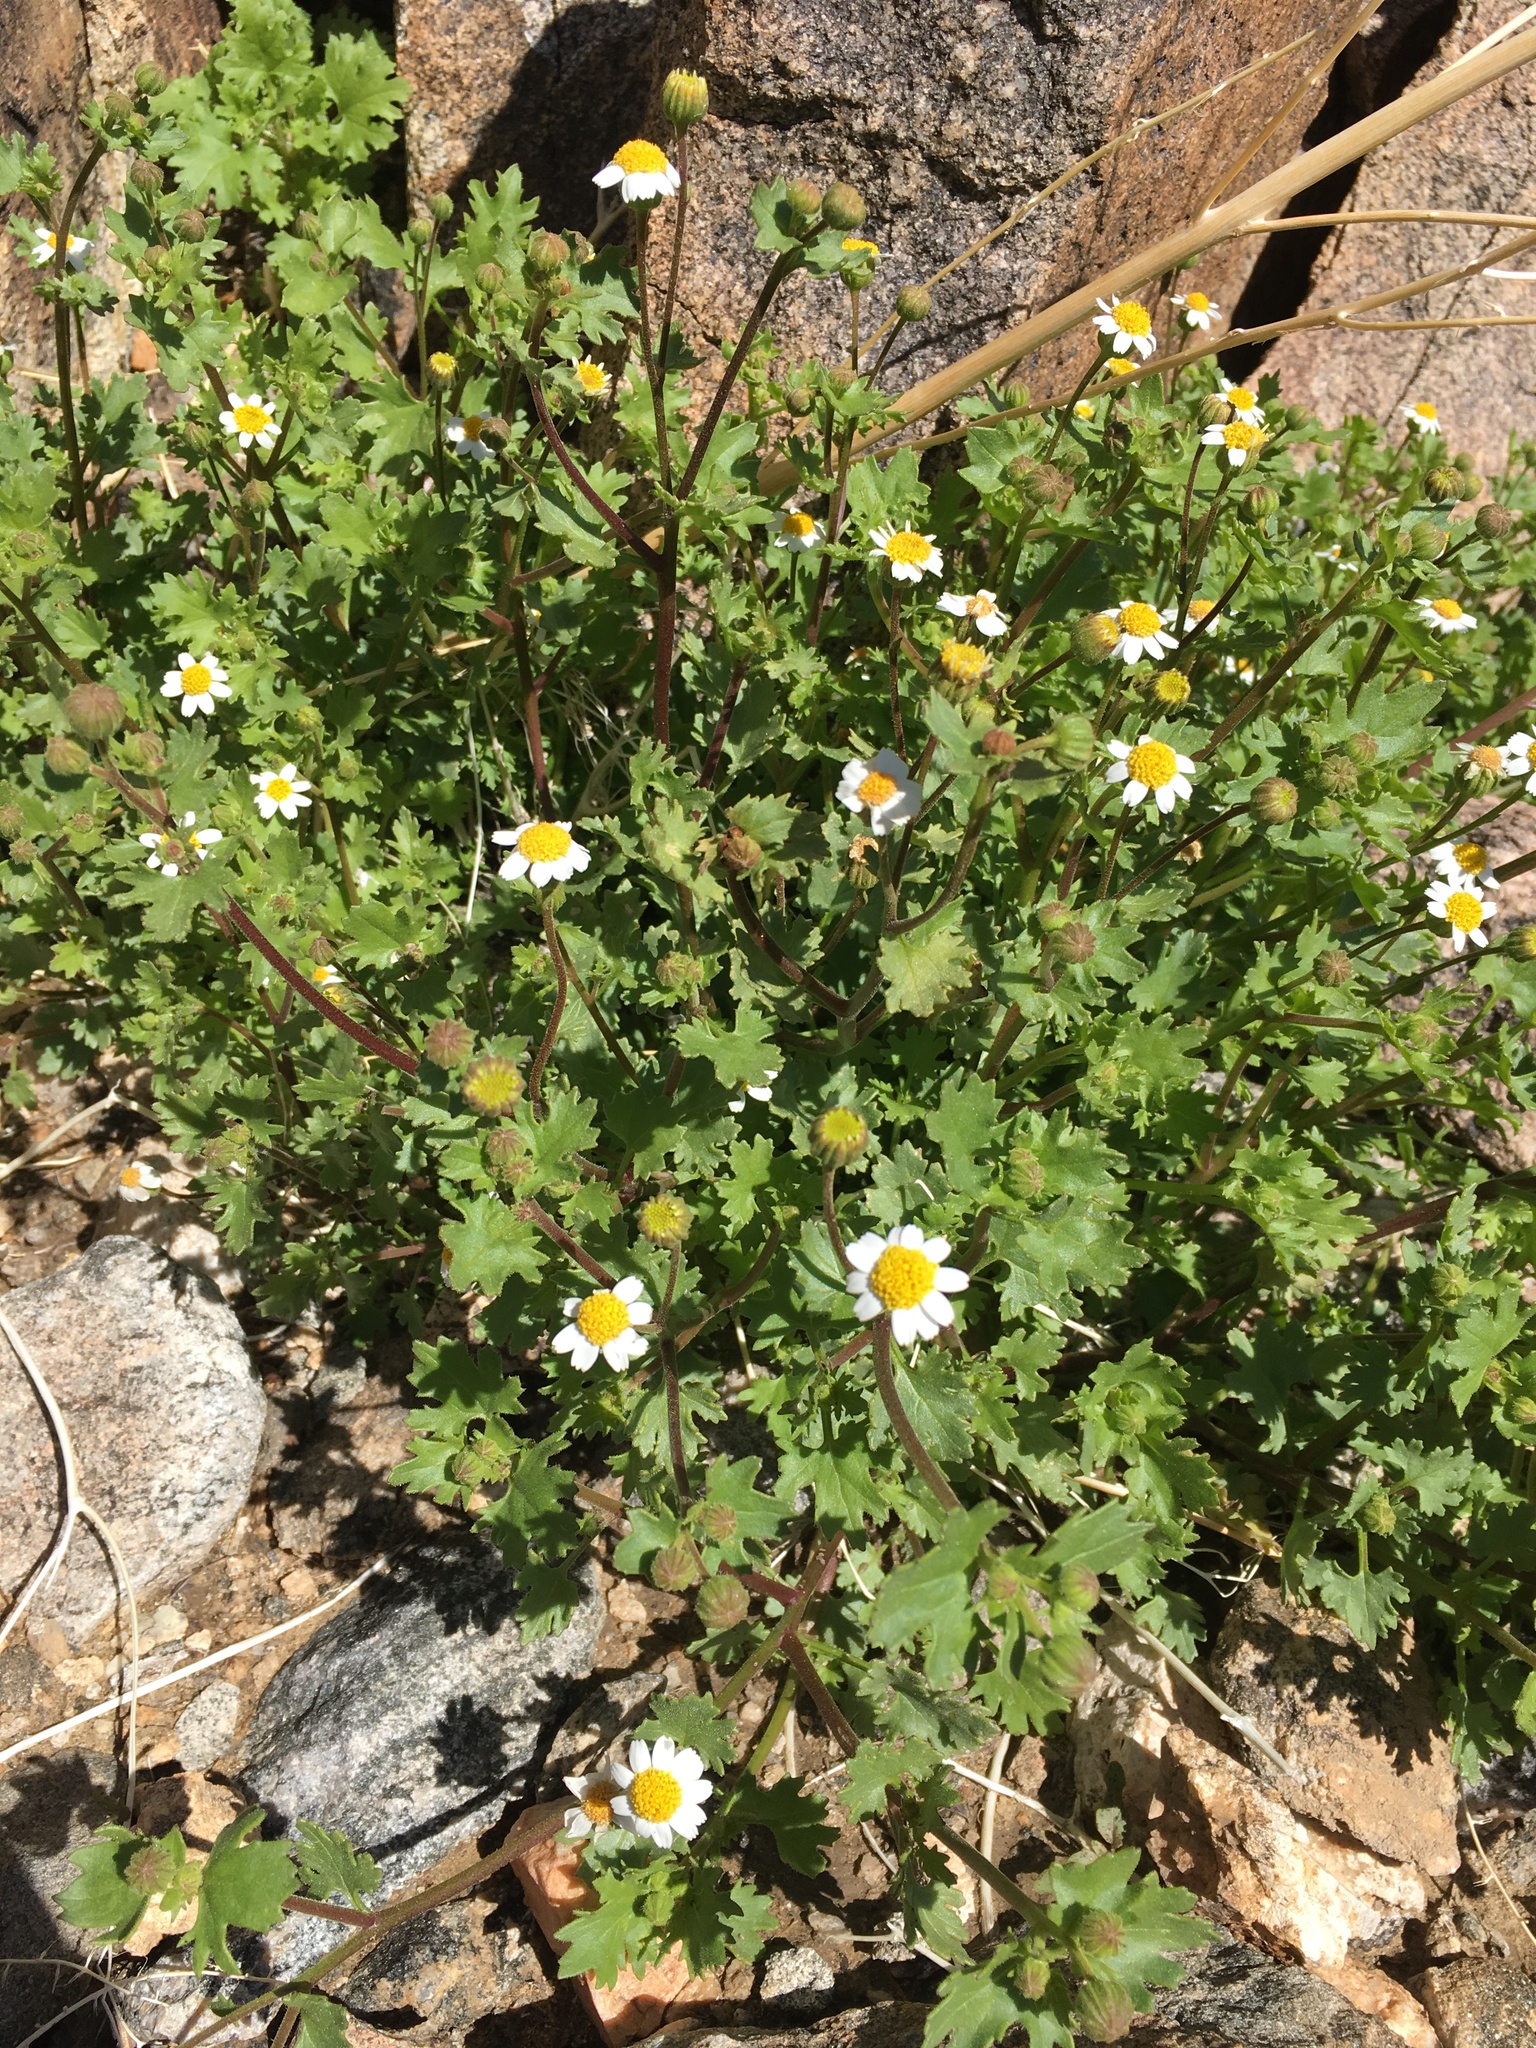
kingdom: Plantae
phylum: Tracheophyta
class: Magnoliopsida
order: Asterales
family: Asteraceae
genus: Laphamia
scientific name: Laphamia emoryi
